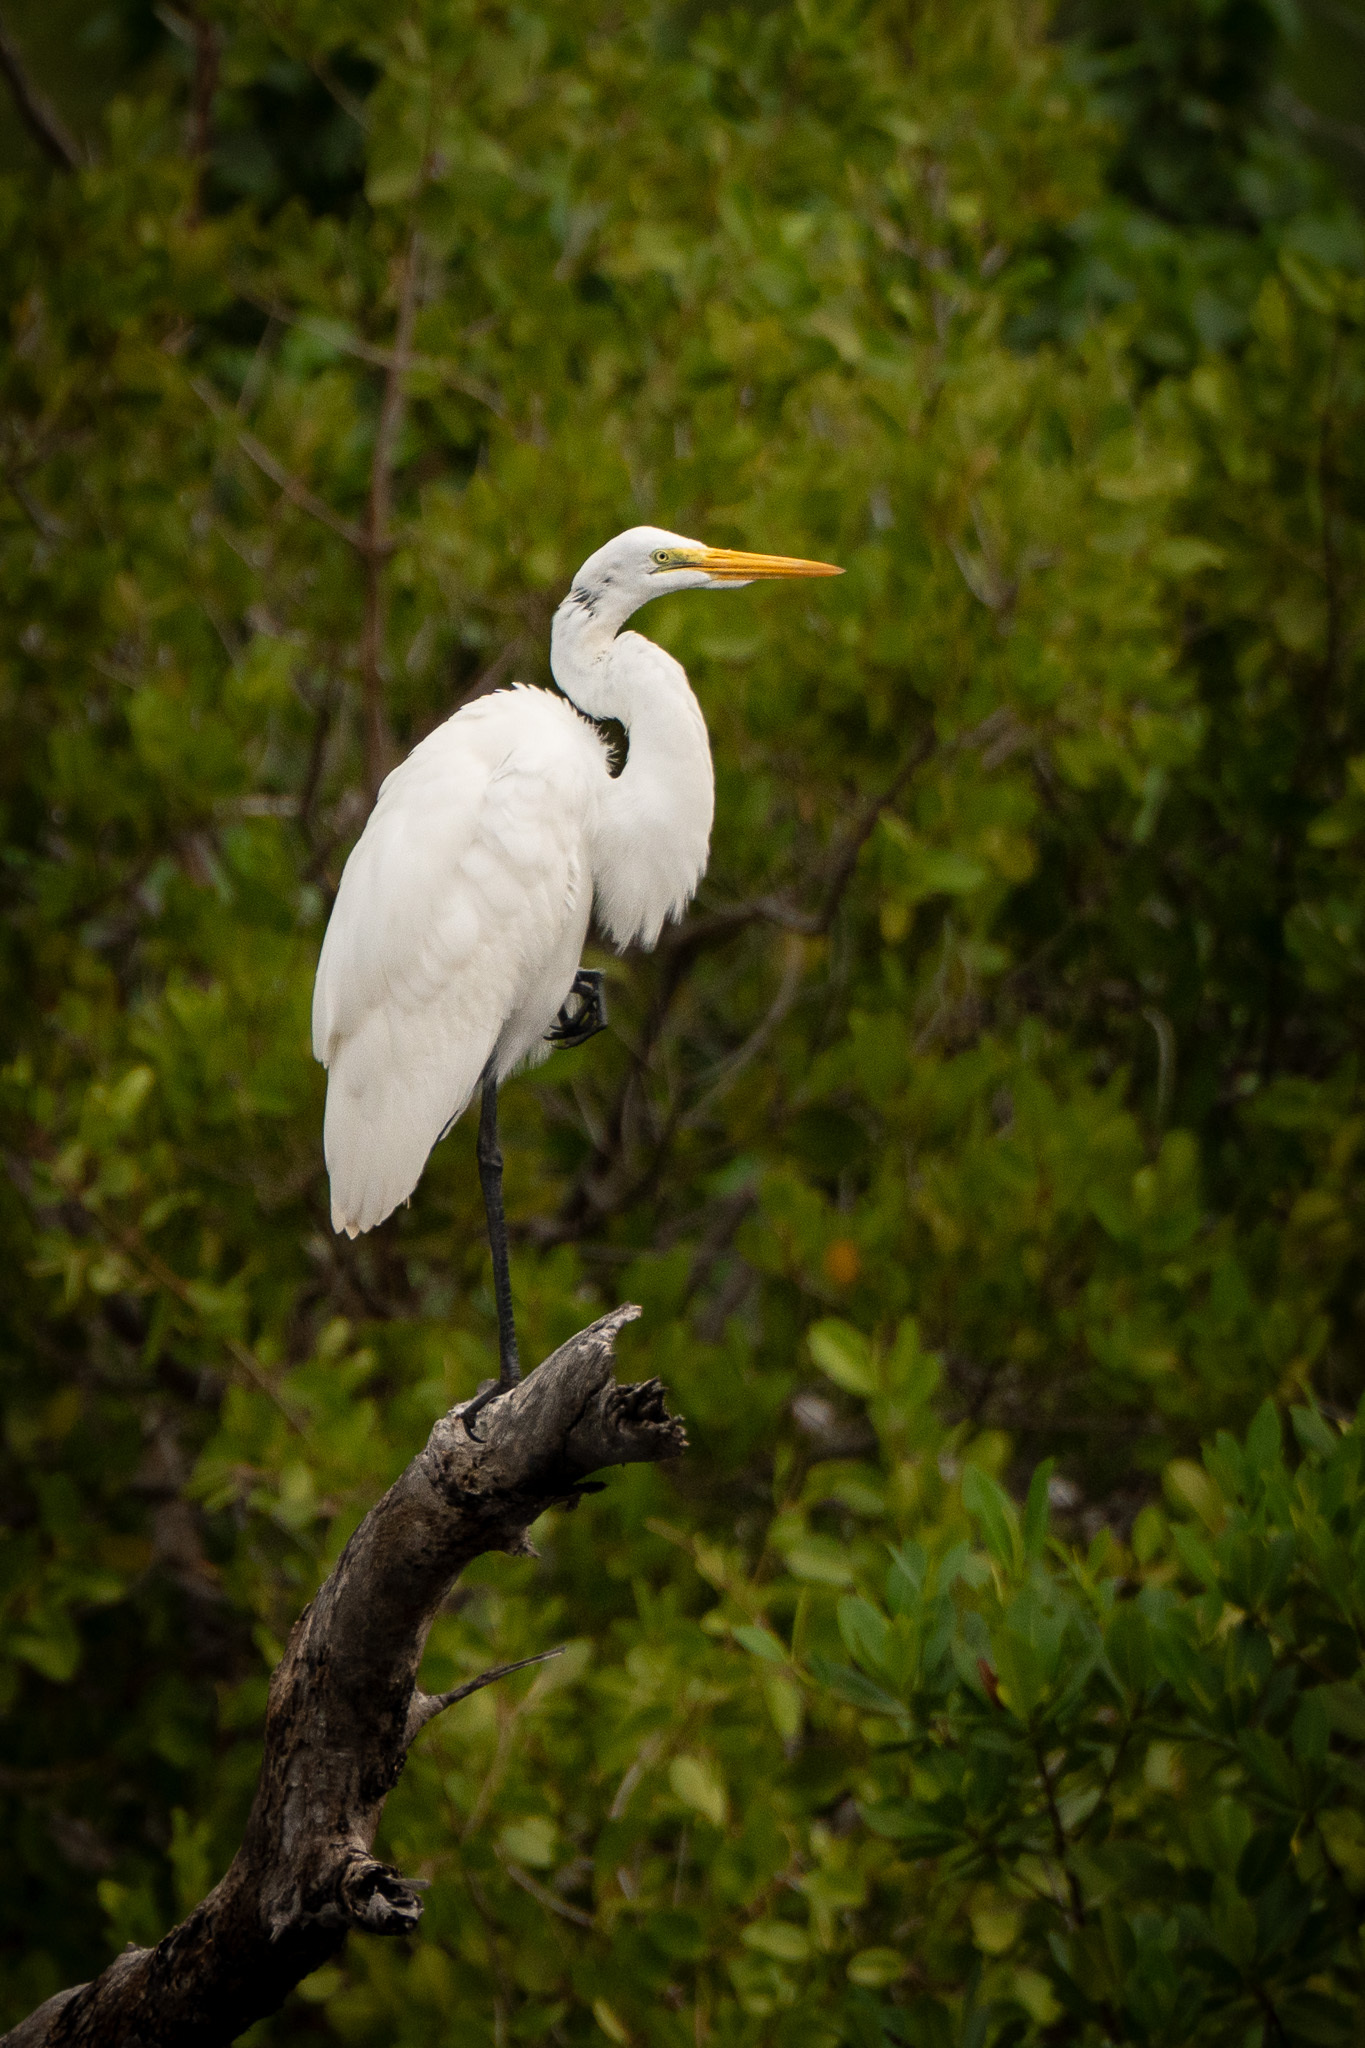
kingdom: Animalia
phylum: Chordata
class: Aves
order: Pelecaniformes
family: Ardeidae
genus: Ardea
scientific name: Ardea alba
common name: Great egret
